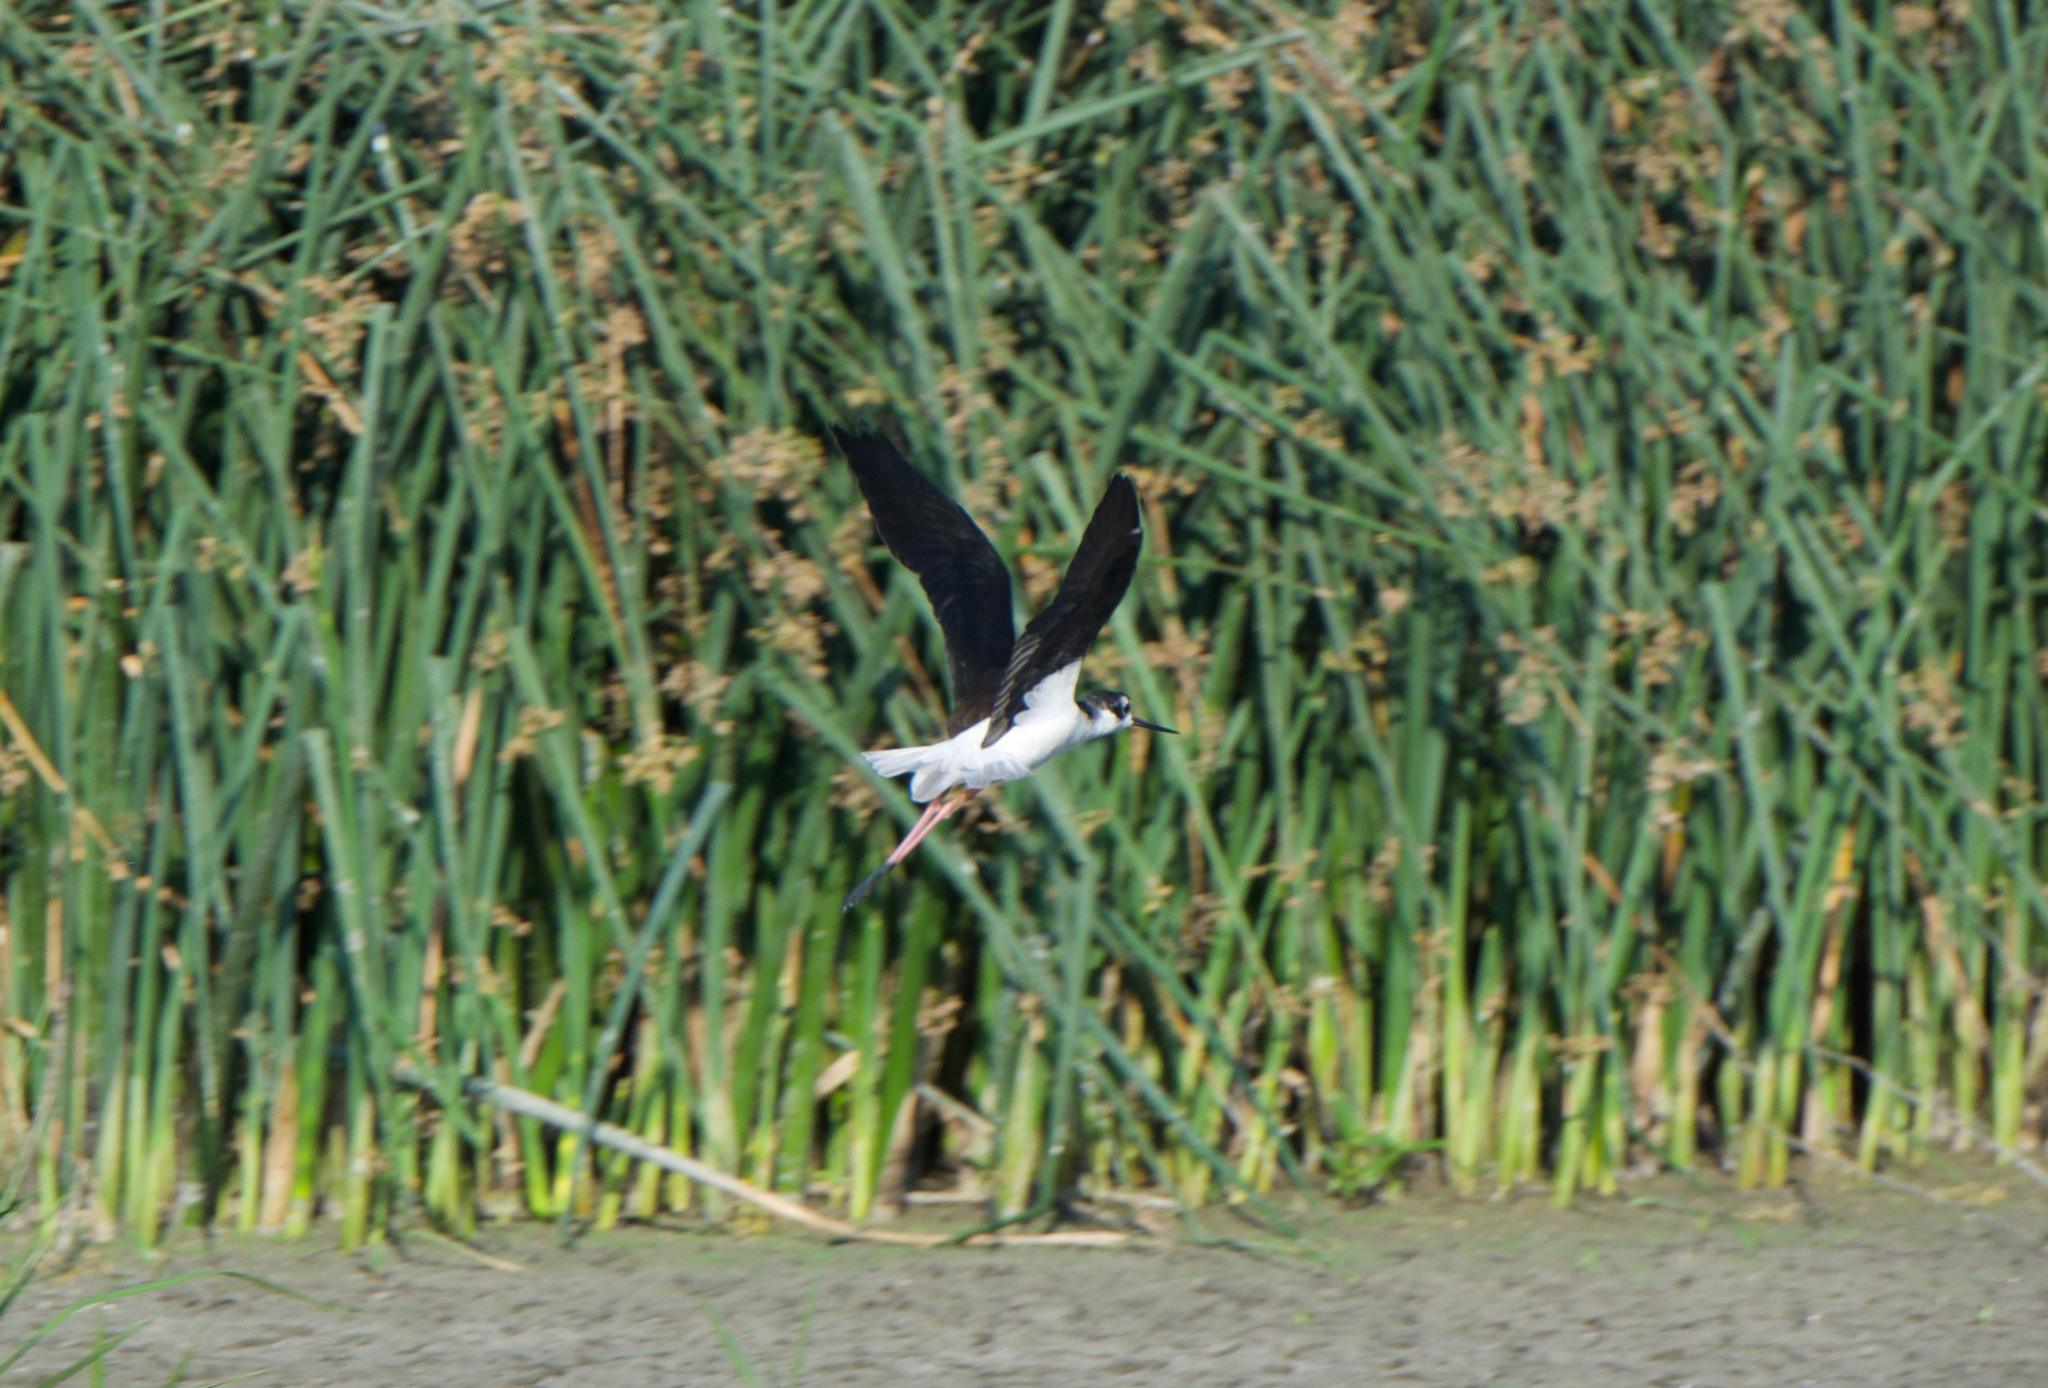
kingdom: Animalia
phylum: Chordata
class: Aves
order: Charadriiformes
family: Recurvirostridae
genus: Himantopus
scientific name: Himantopus mexicanus
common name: Black-necked stilt
